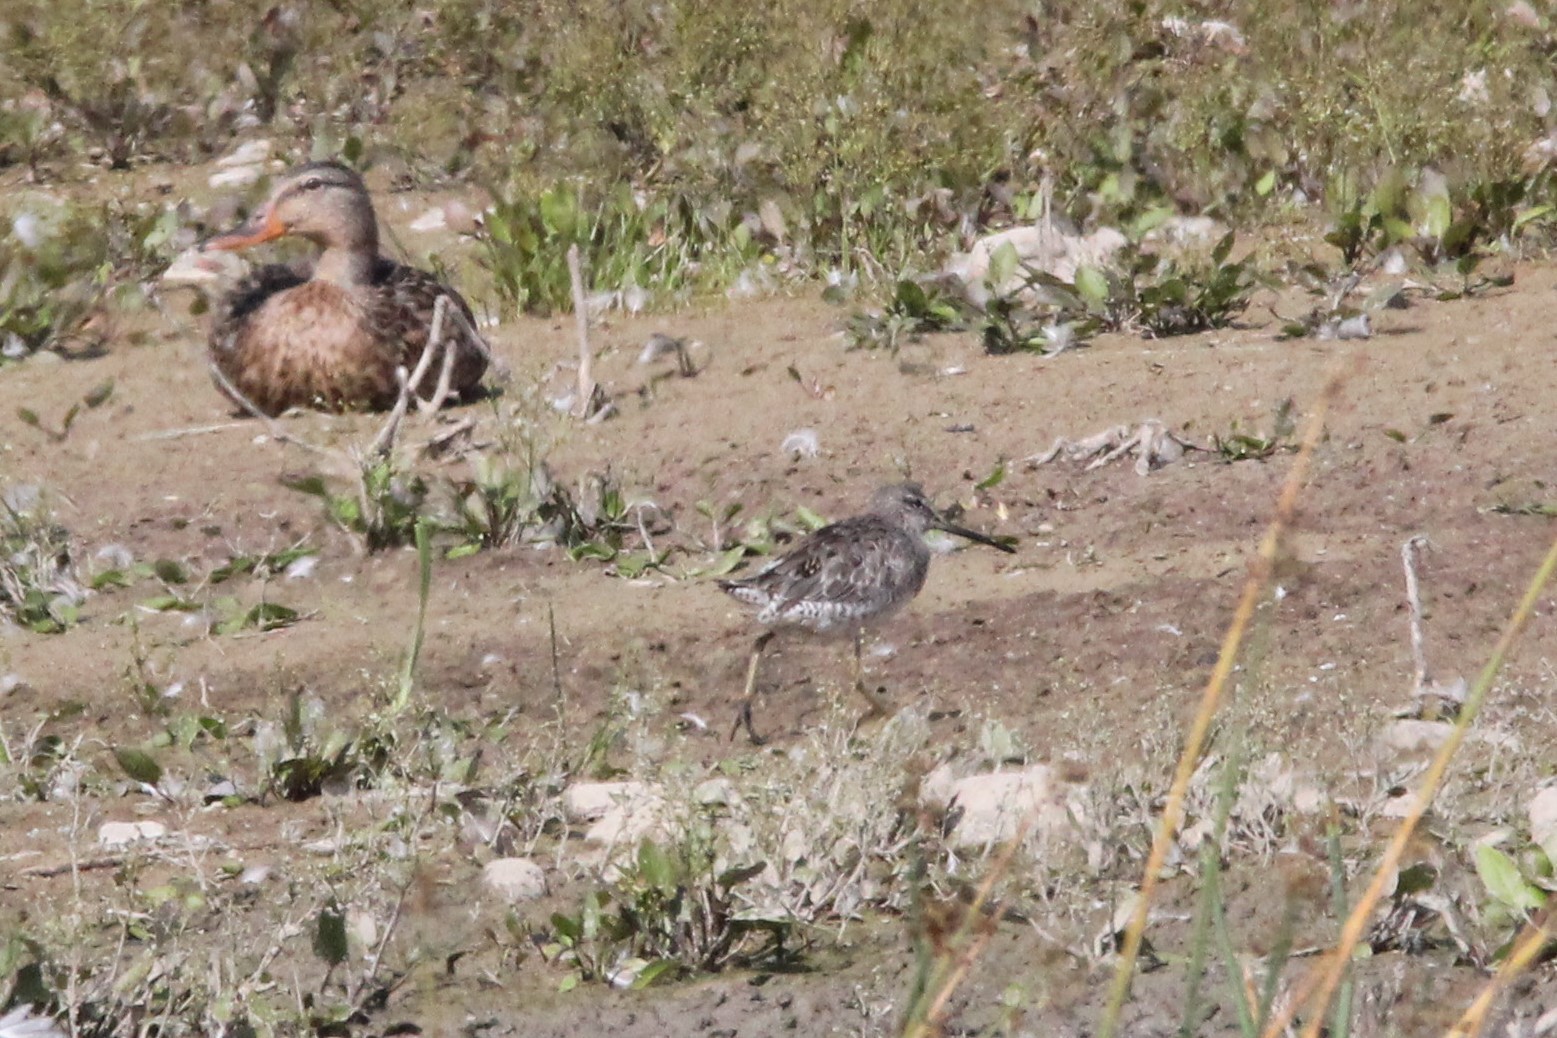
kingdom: Animalia
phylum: Chordata
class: Aves
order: Charadriiformes
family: Scolopacidae
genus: Limnodromus
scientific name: Limnodromus griseus
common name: Short-billed dowitcher
